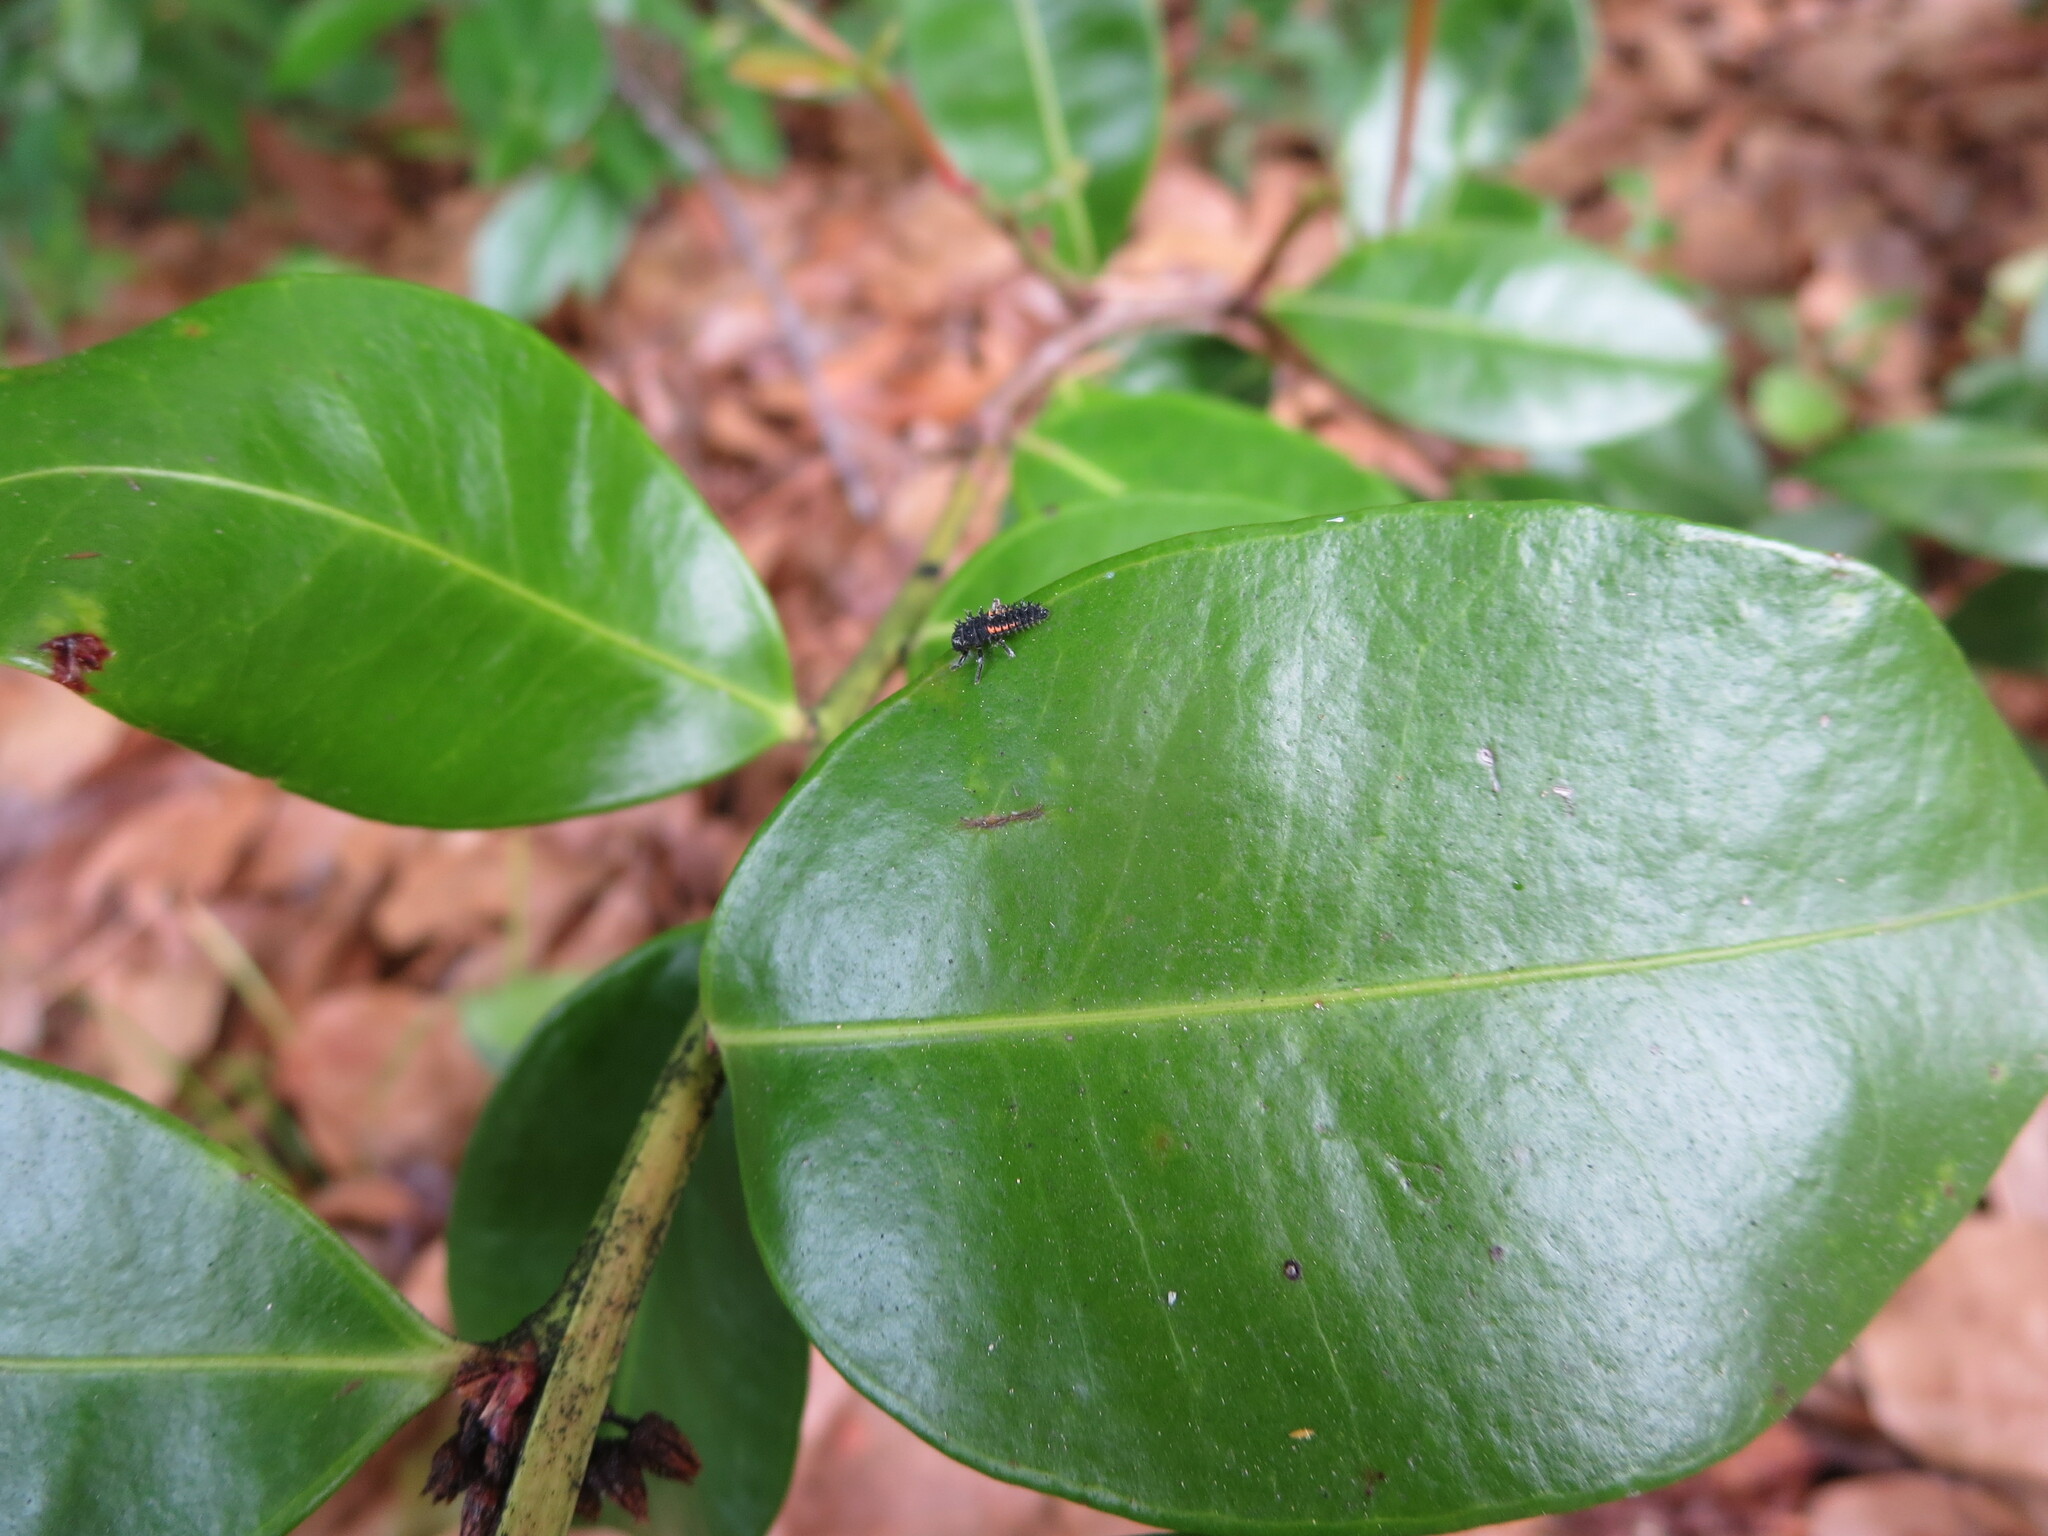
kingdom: Animalia
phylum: Arthropoda
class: Insecta
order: Coleoptera
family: Coccinellidae
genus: Harmonia
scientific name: Harmonia axyridis
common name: Harlequin ladybird
